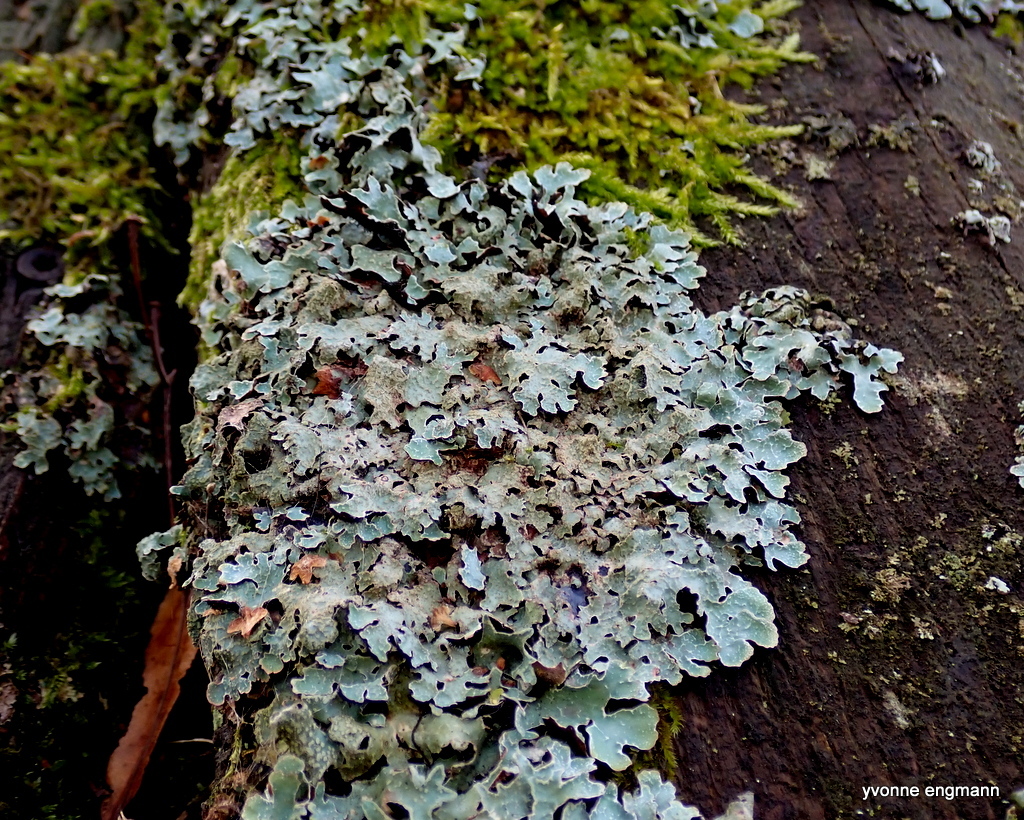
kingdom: Fungi
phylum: Ascomycota
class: Lecanoromycetes
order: Lecanorales
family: Parmeliaceae
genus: Parmelia
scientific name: Parmelia sulcata
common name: Netted shield lichen
